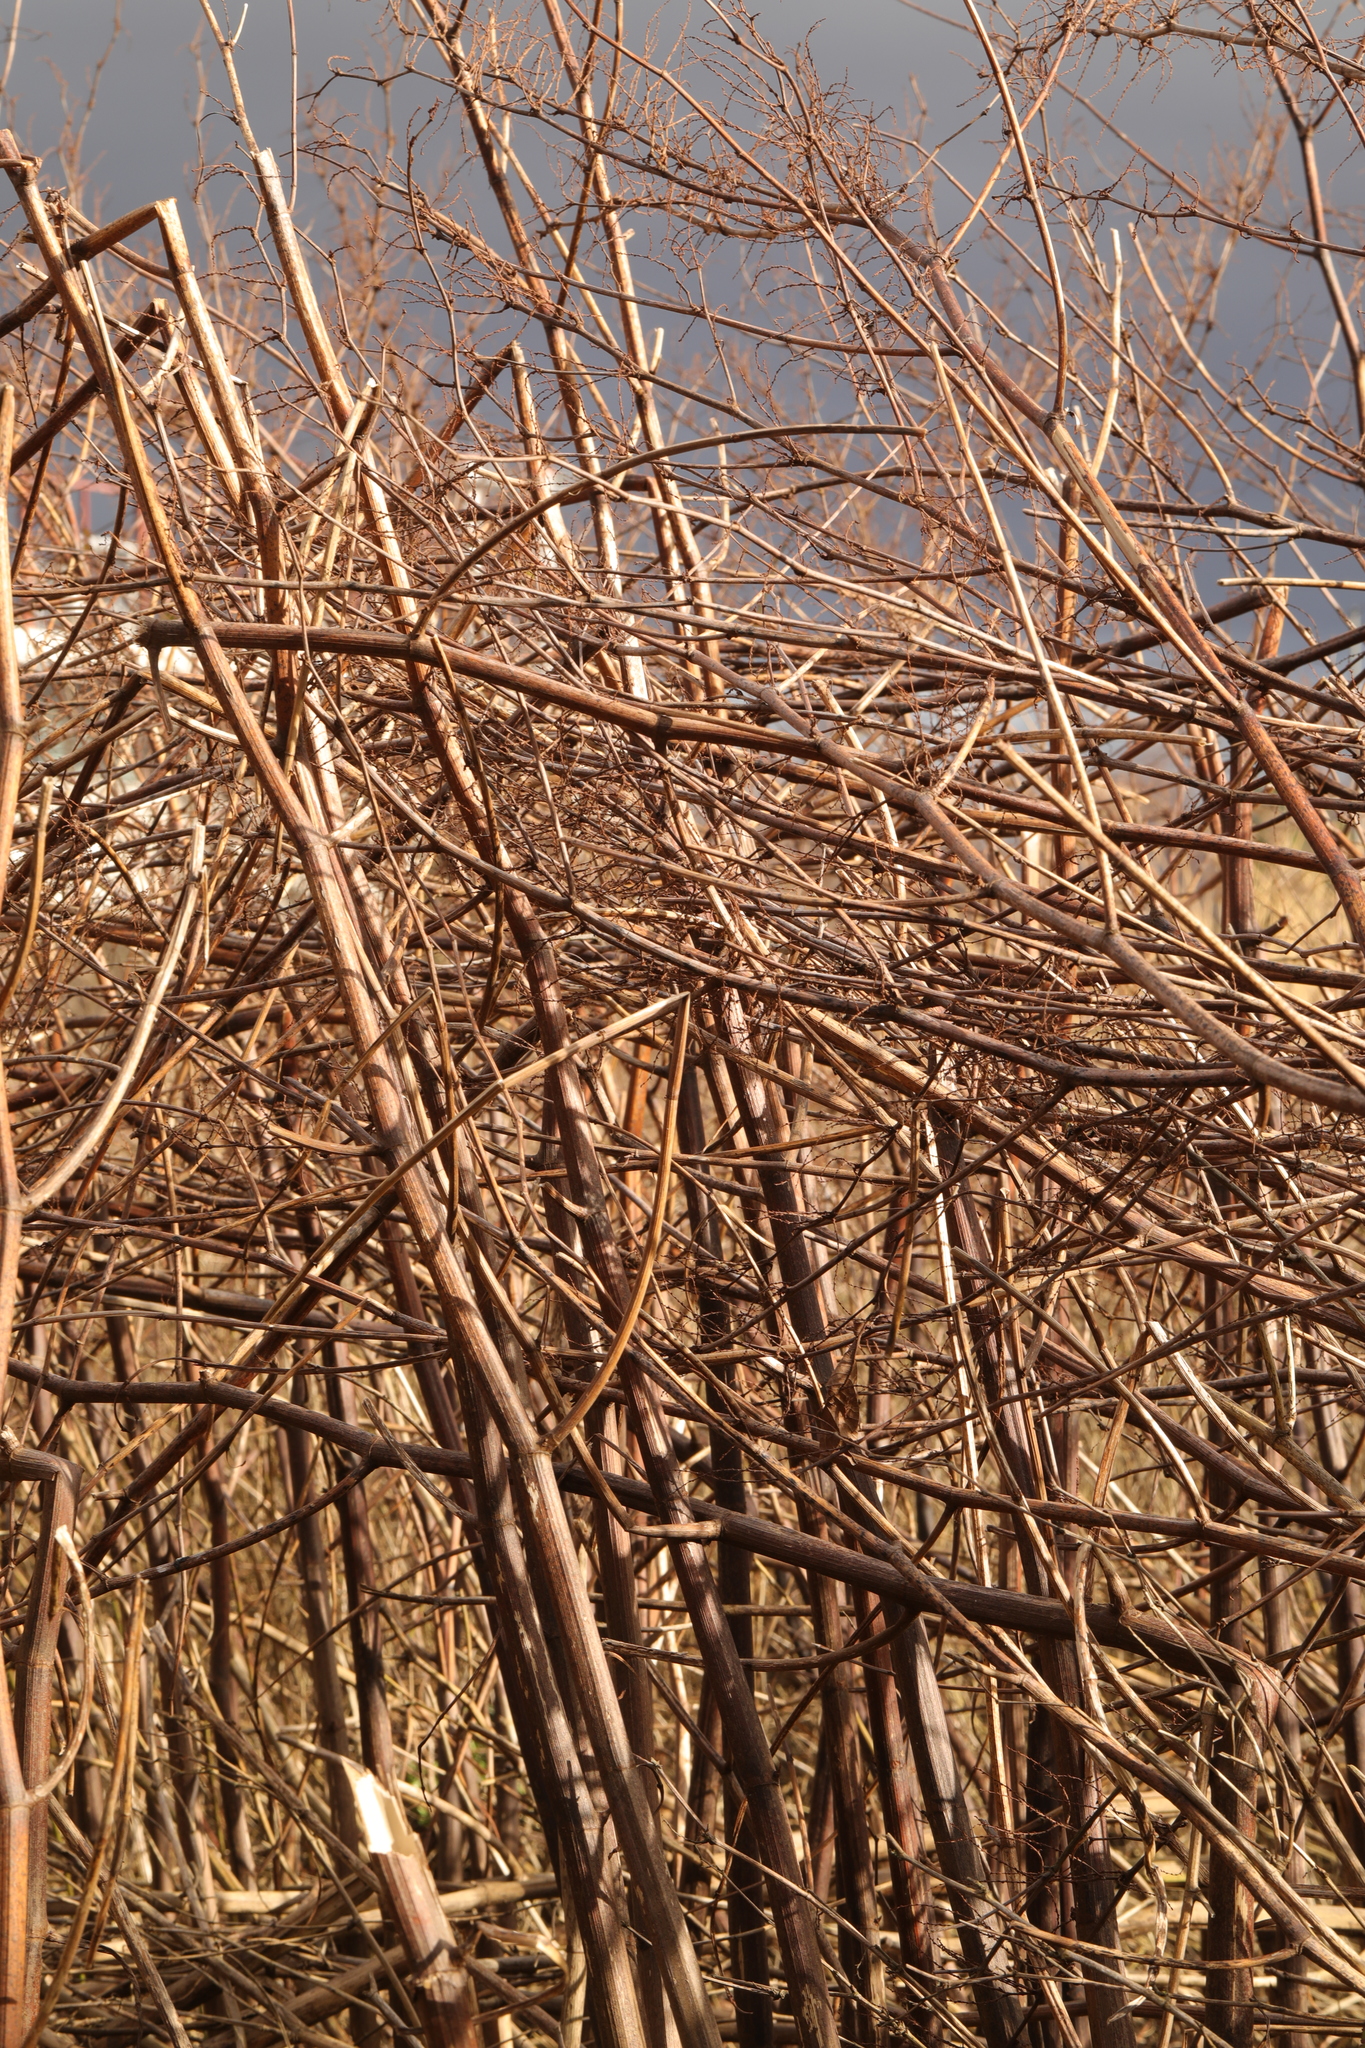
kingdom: Plantae
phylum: Tracheophyta
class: Magnoliopsida
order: Caryophyllales
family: Polygonaceae
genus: Reynoutria
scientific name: Reynoutria japonica
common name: Japanese knotweed
